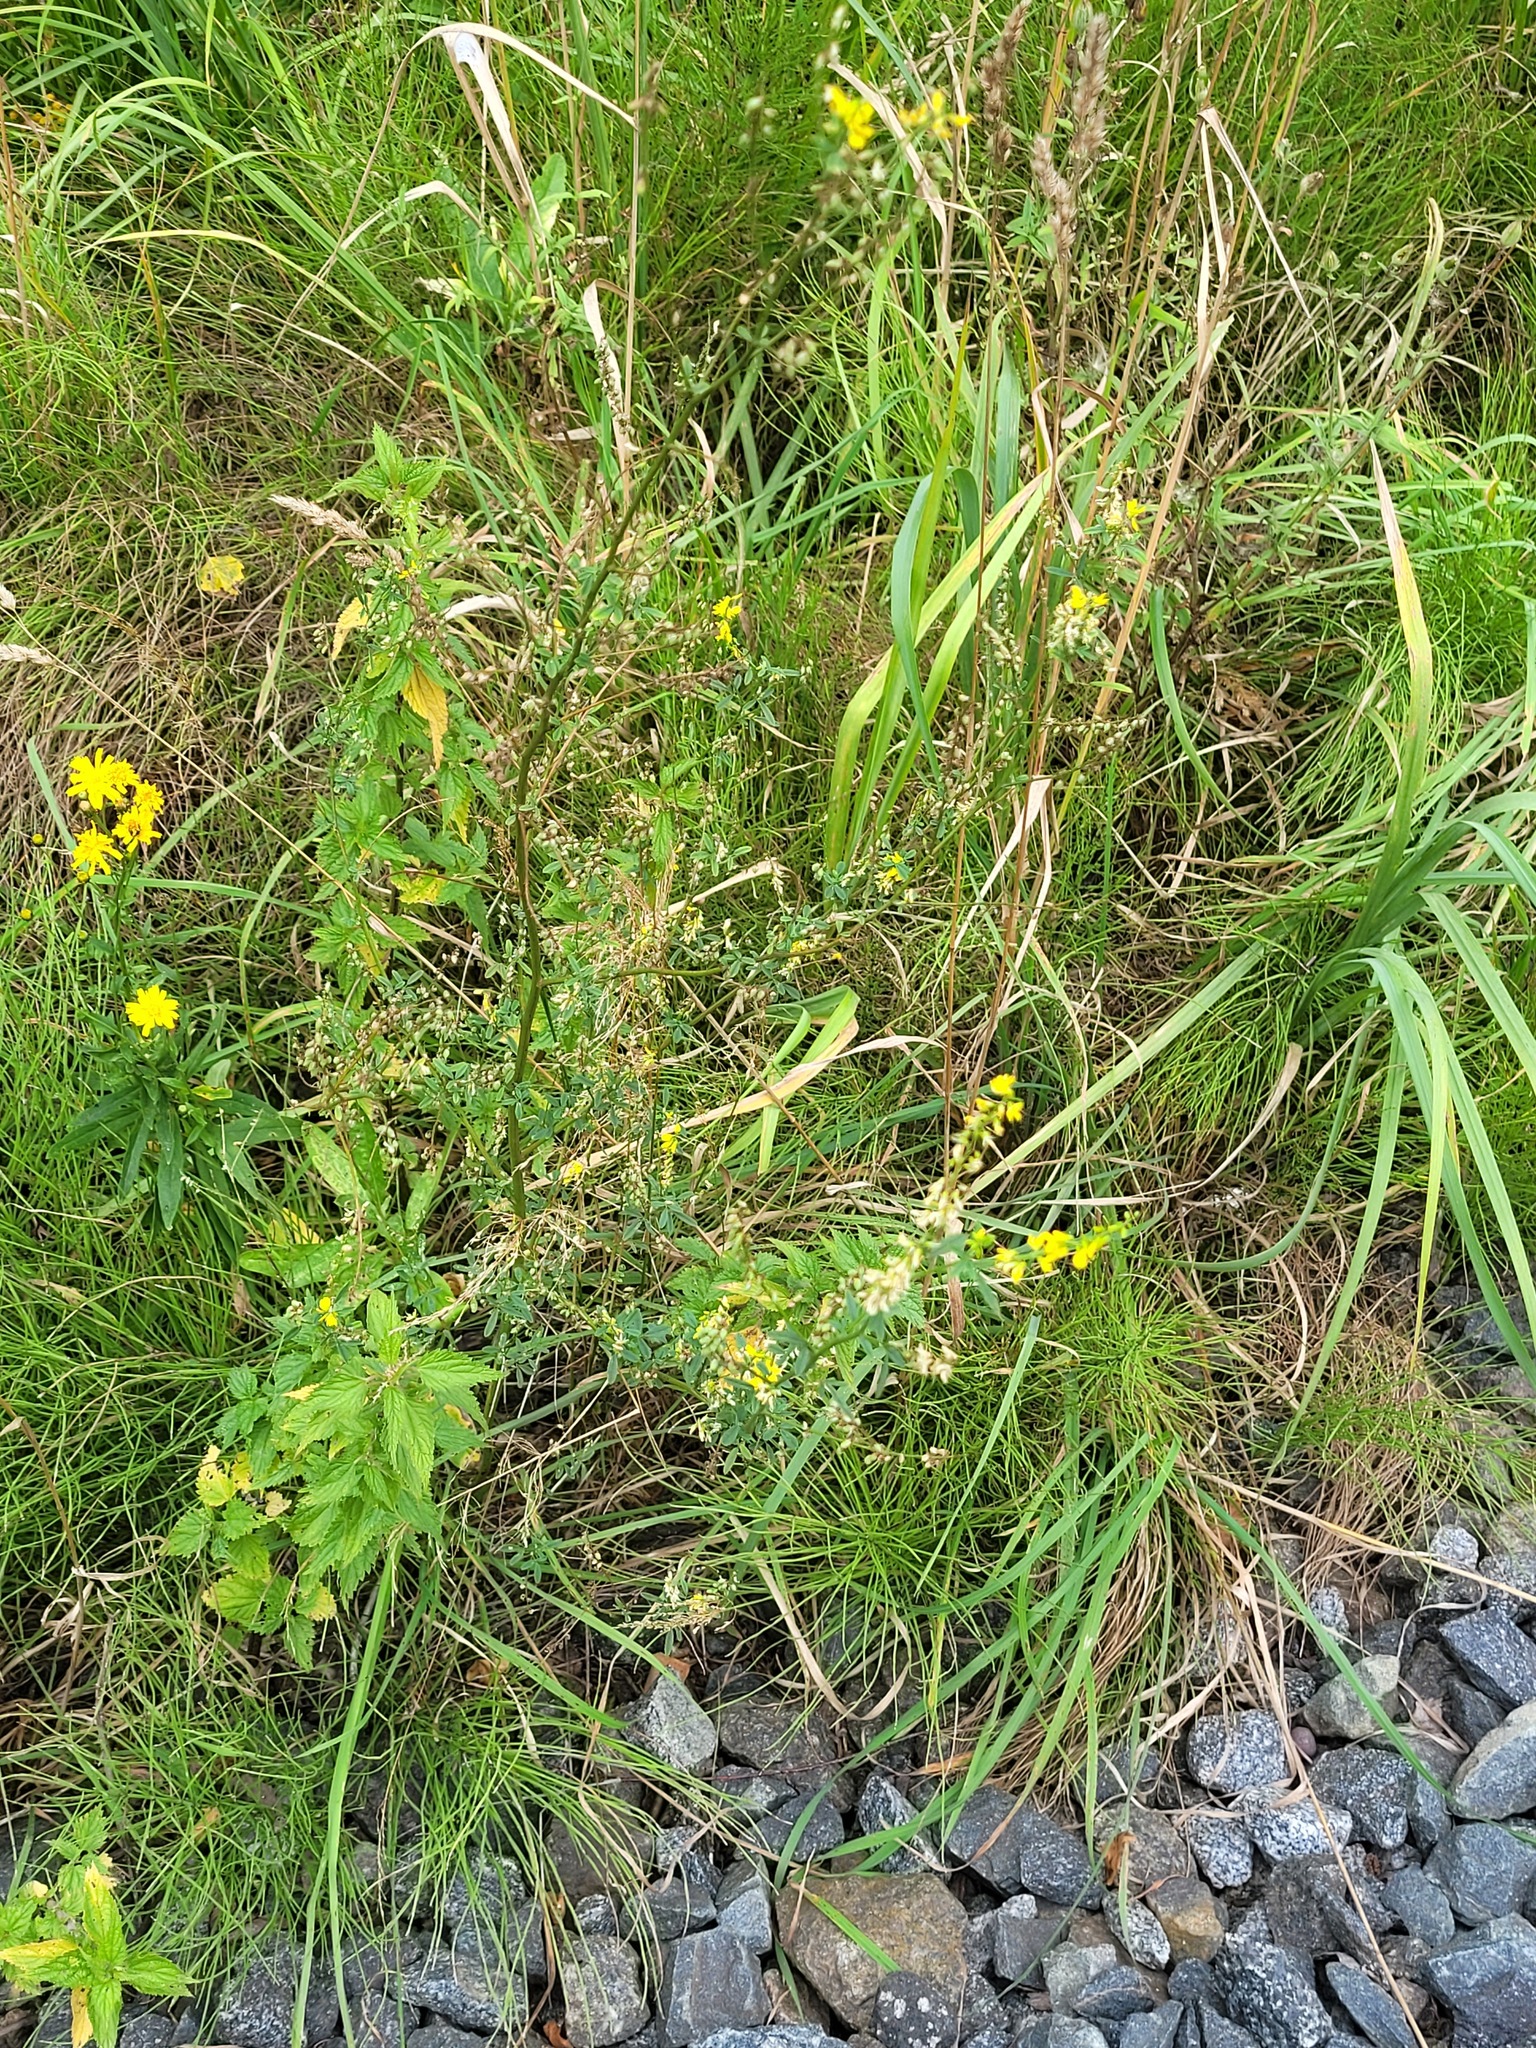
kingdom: Plantae
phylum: Tracheophyta
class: Magnoliopsida
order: Fabales
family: Fabaceae
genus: Melilotus
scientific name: Melilotus officinalis
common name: Sweetclover
